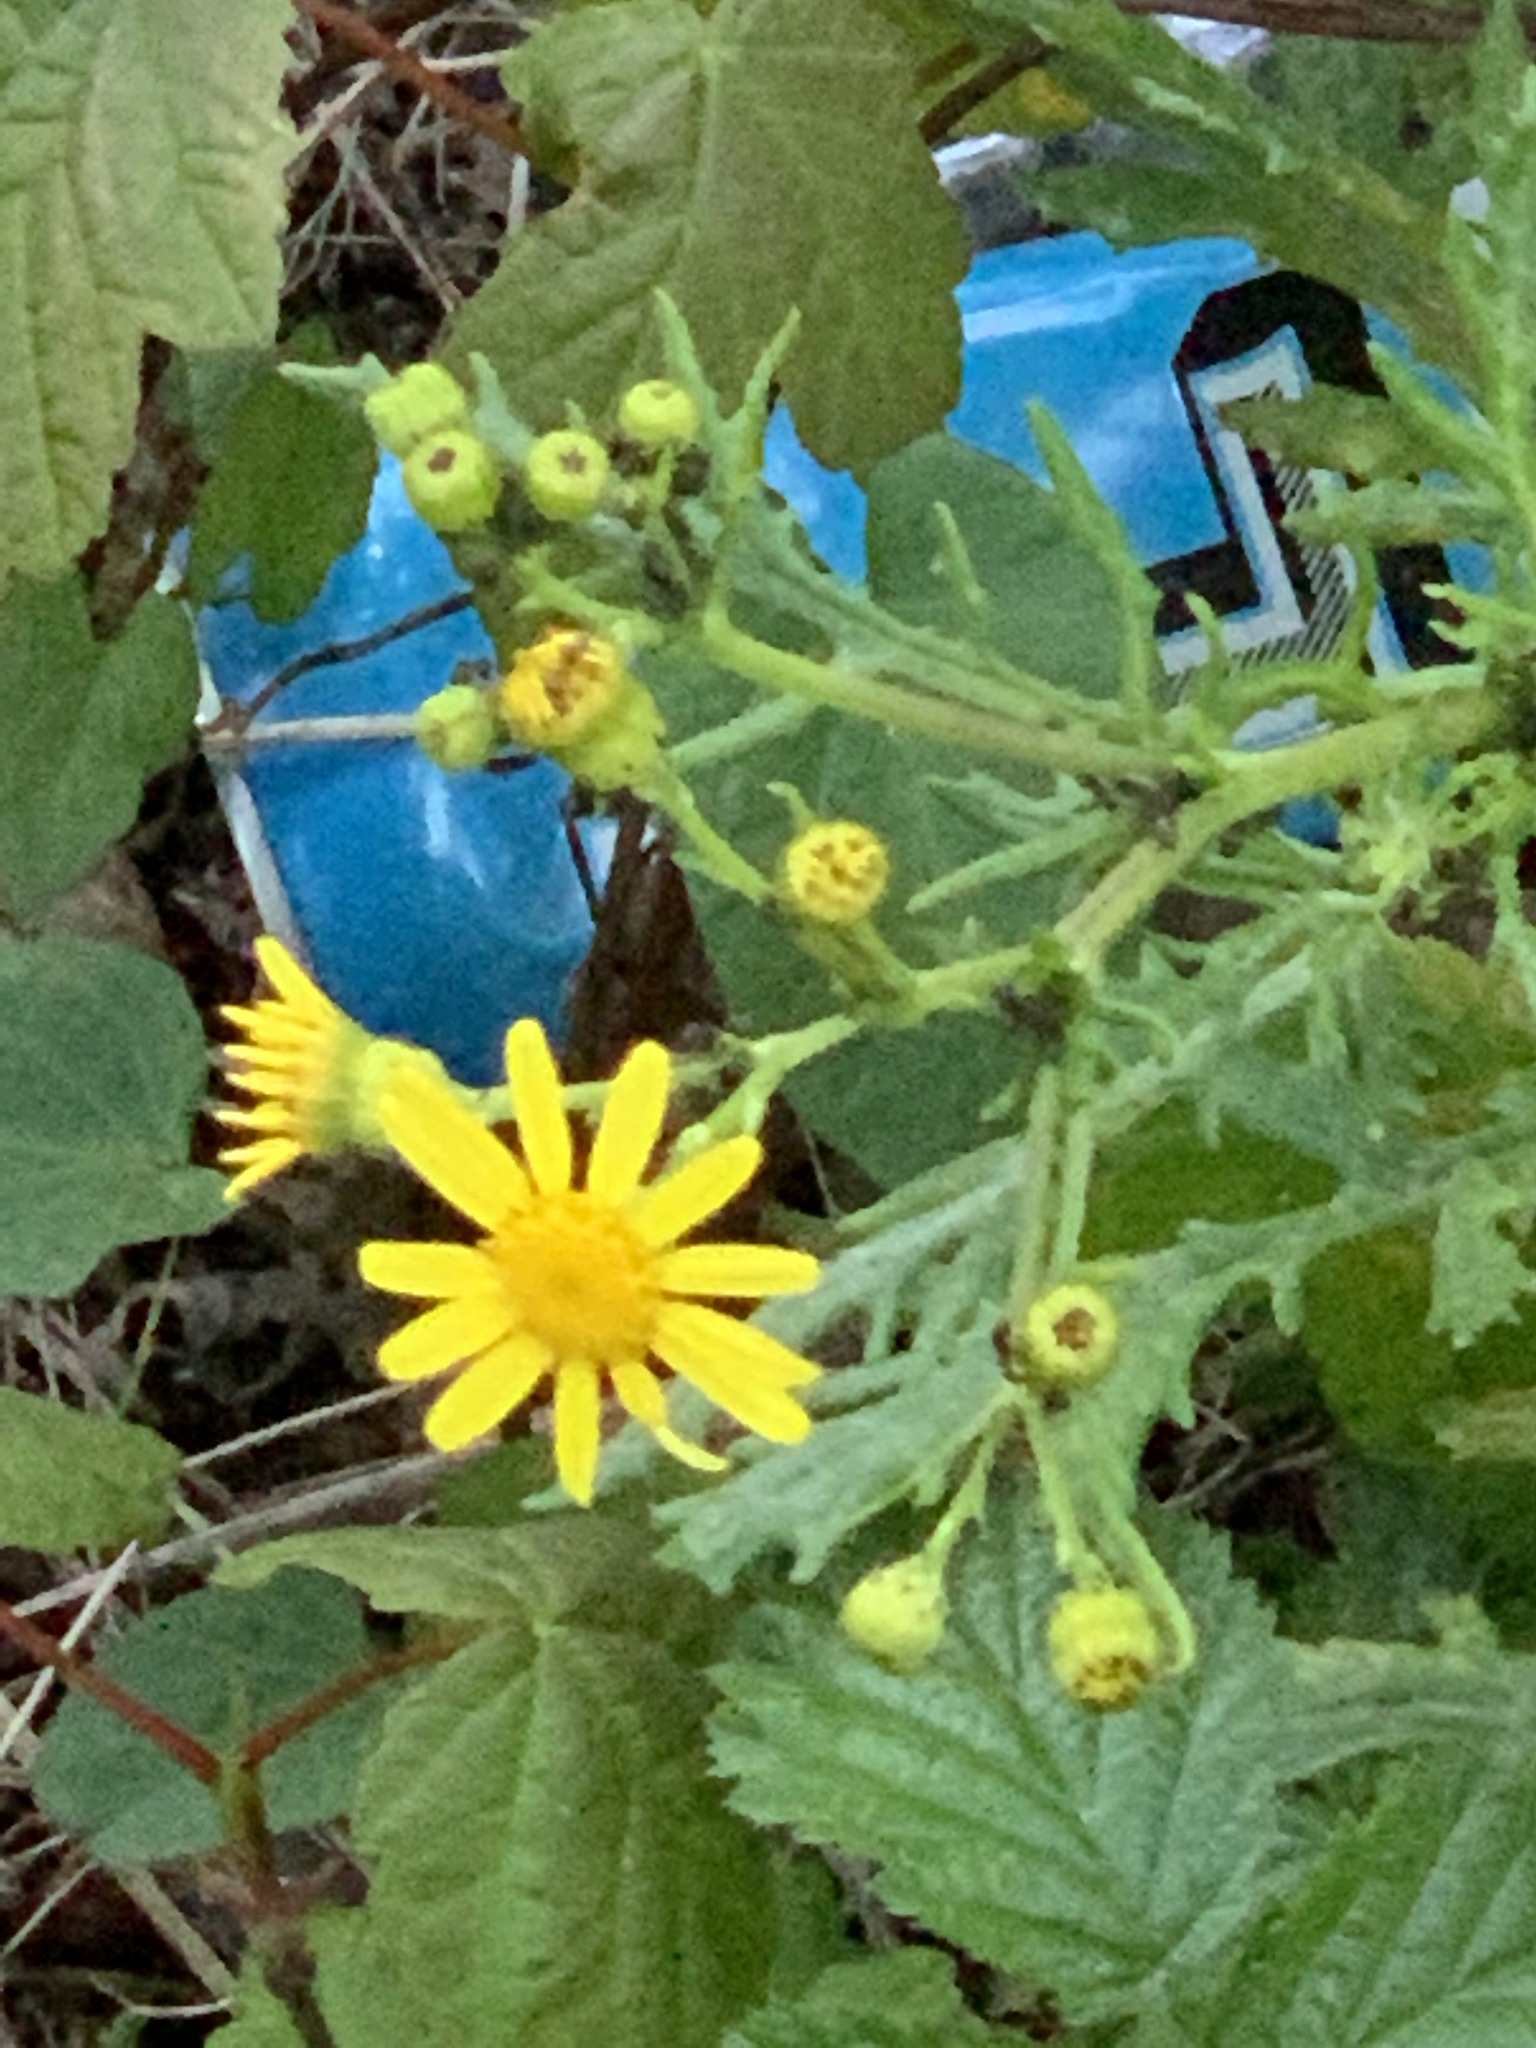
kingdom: Plantae
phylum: Tracheophyta
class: Magnoliopsida
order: Asterales
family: Asteraceae
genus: Senecio
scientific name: Senecio squalidus
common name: Oxford ragwort
